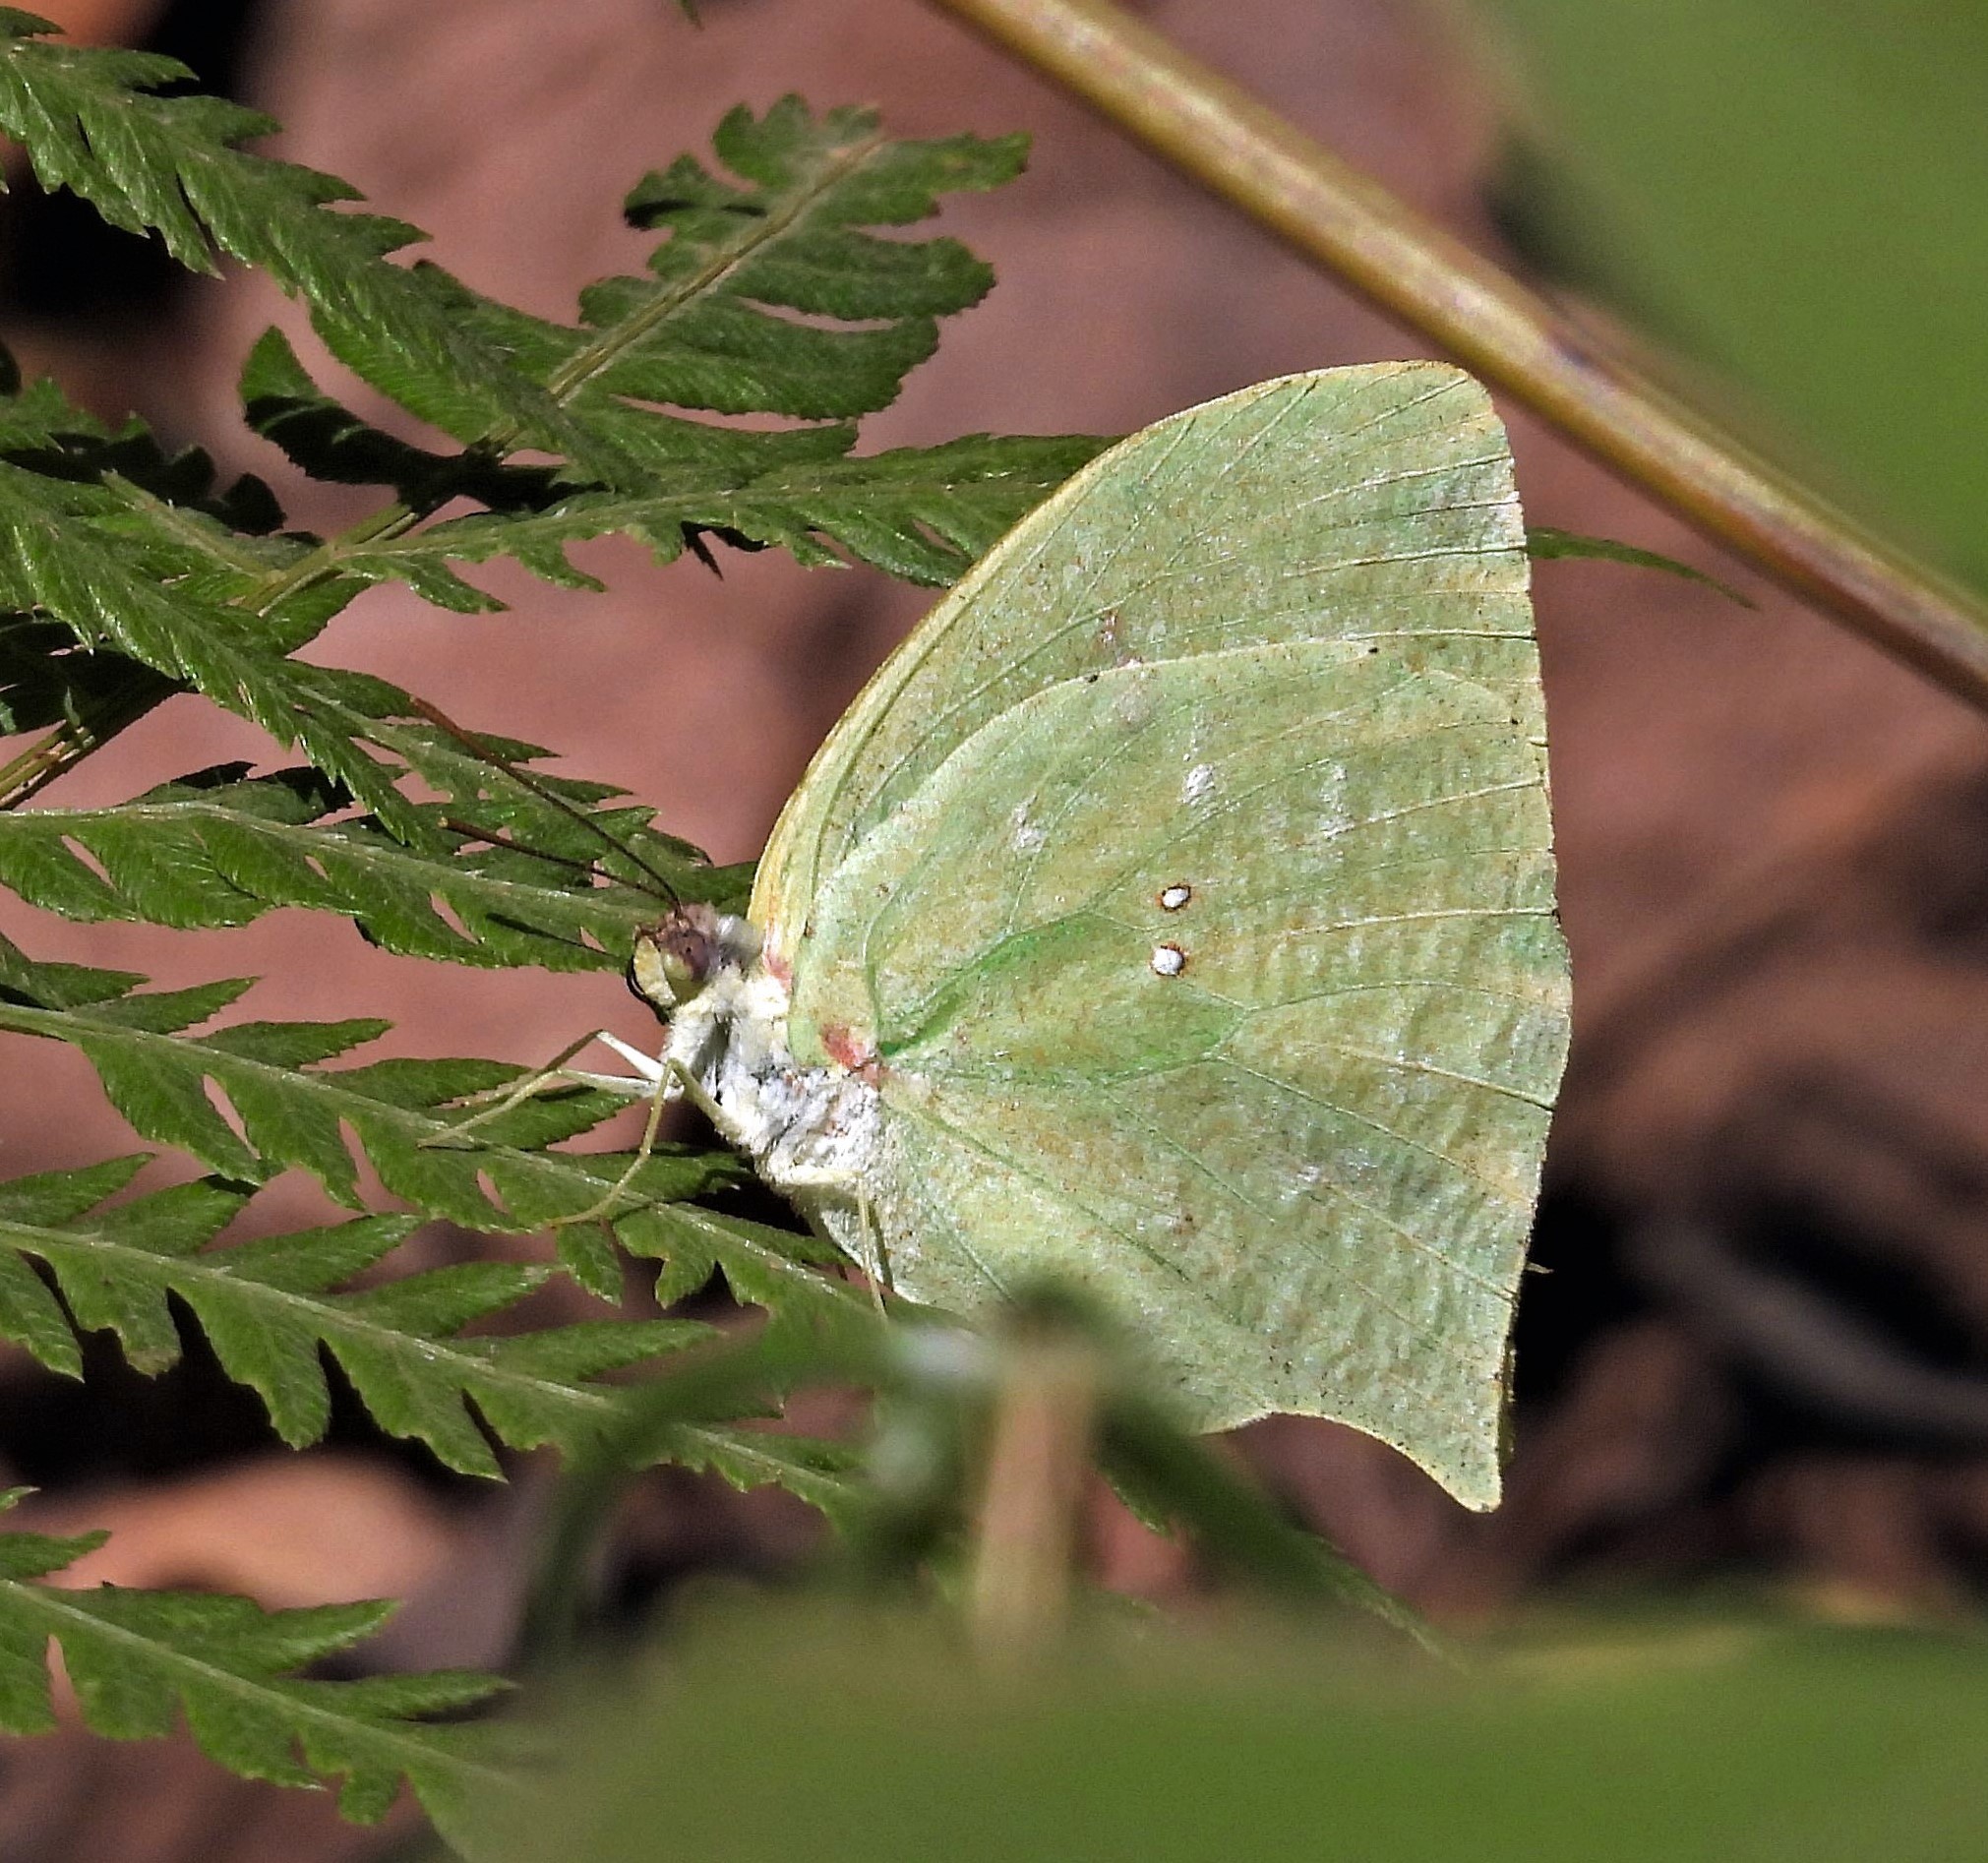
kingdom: Animalia
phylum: Arthropoda
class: Insecta
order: Lepidoptera
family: Pieridae
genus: Phoebis
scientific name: Phoebis neocypris
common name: Tailed sulphur
